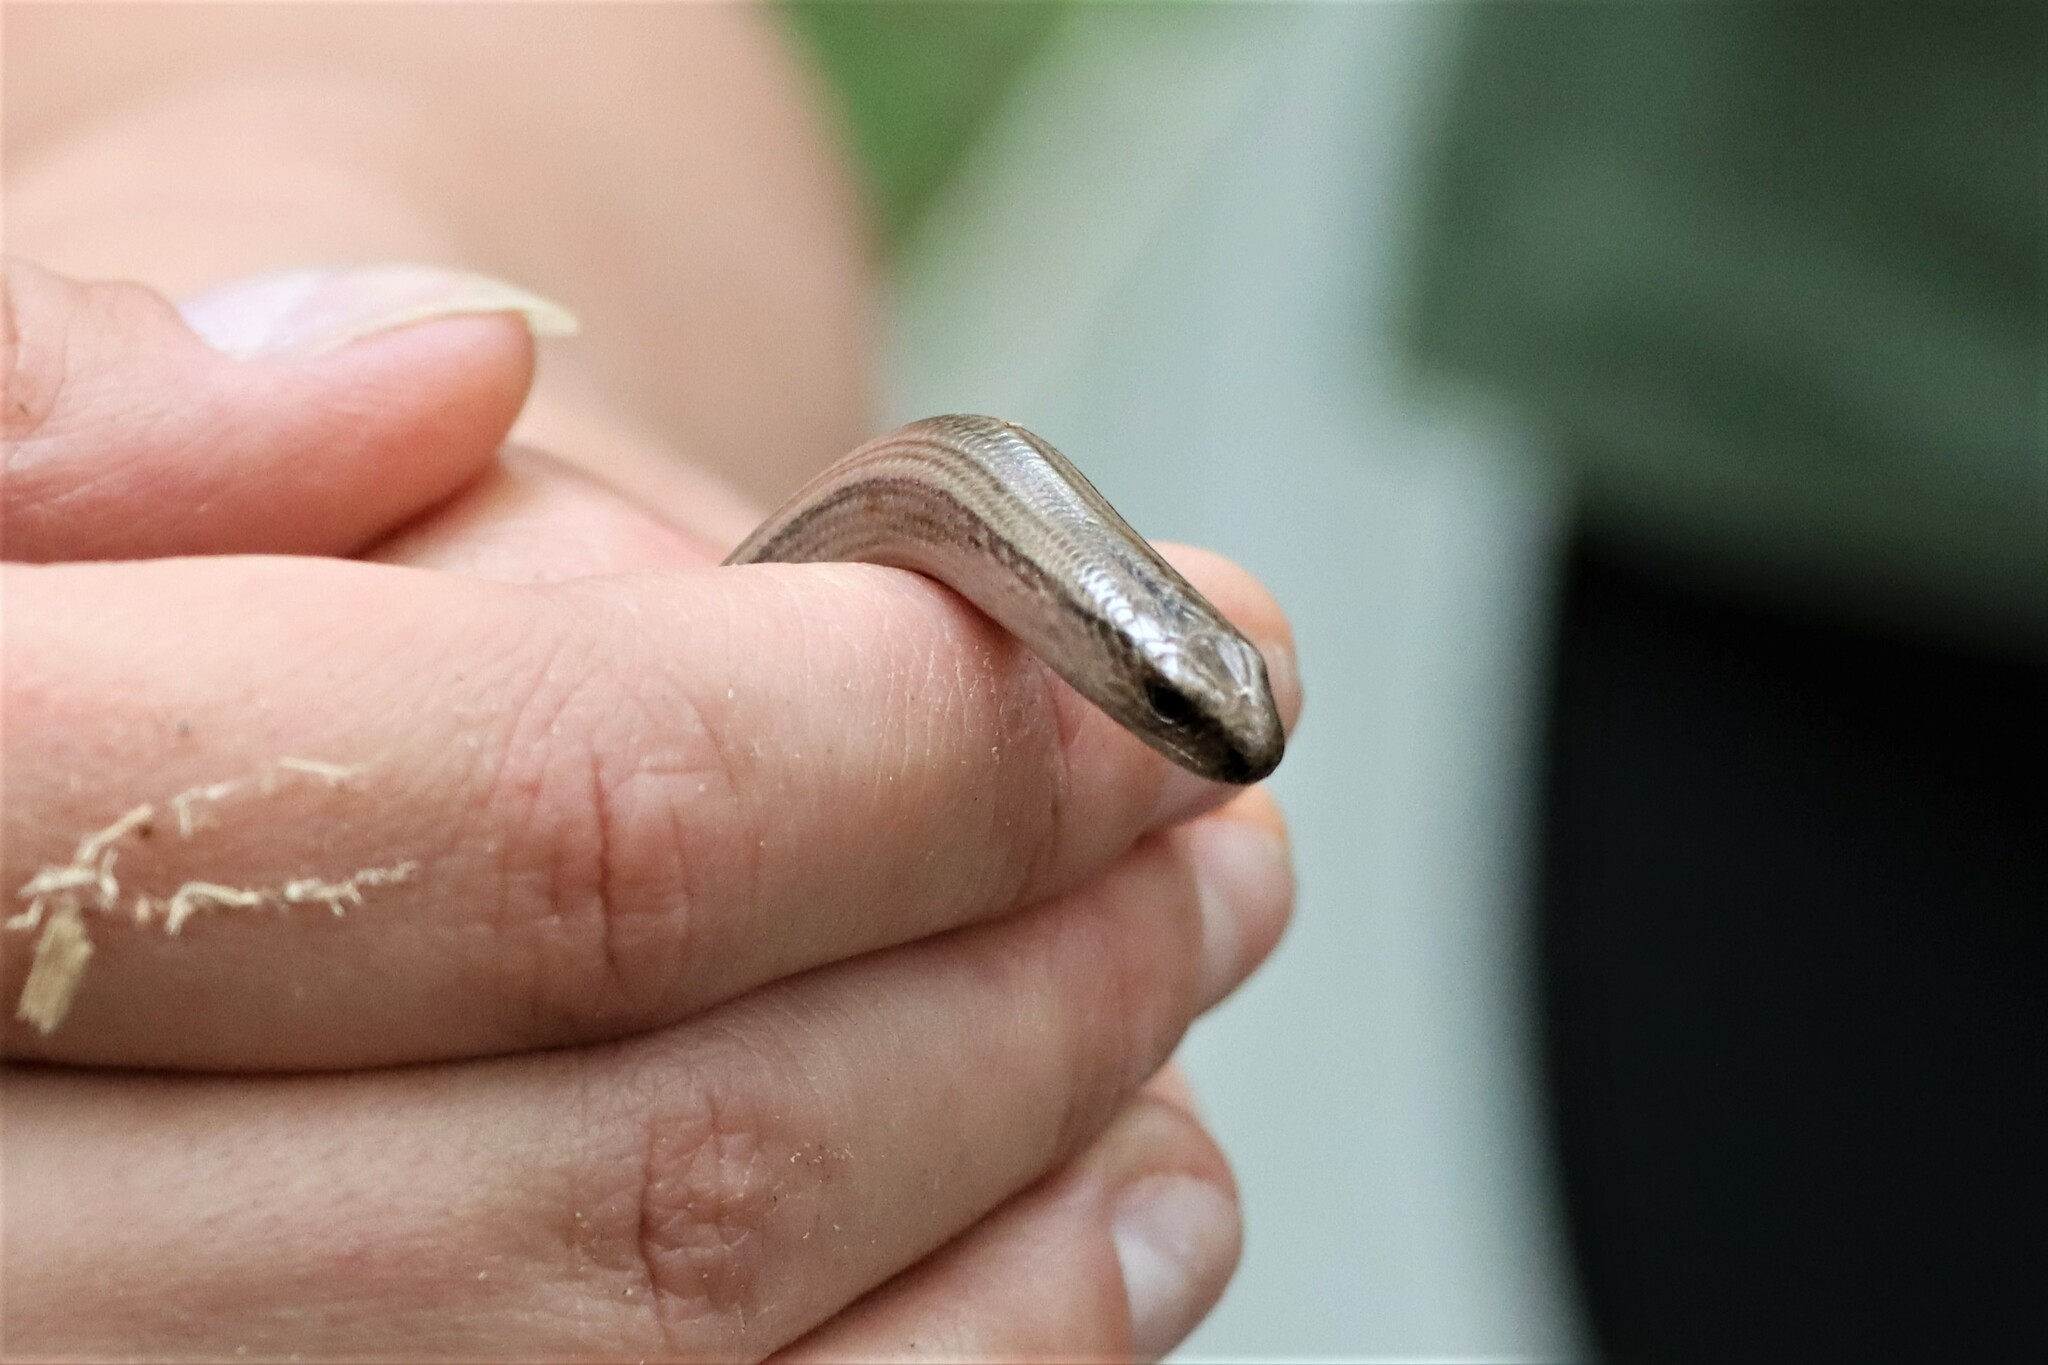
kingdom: Animalia
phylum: Chordata
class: Squamata
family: Anguidae
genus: Anguis
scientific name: Anguis fragilis
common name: Slow worm
